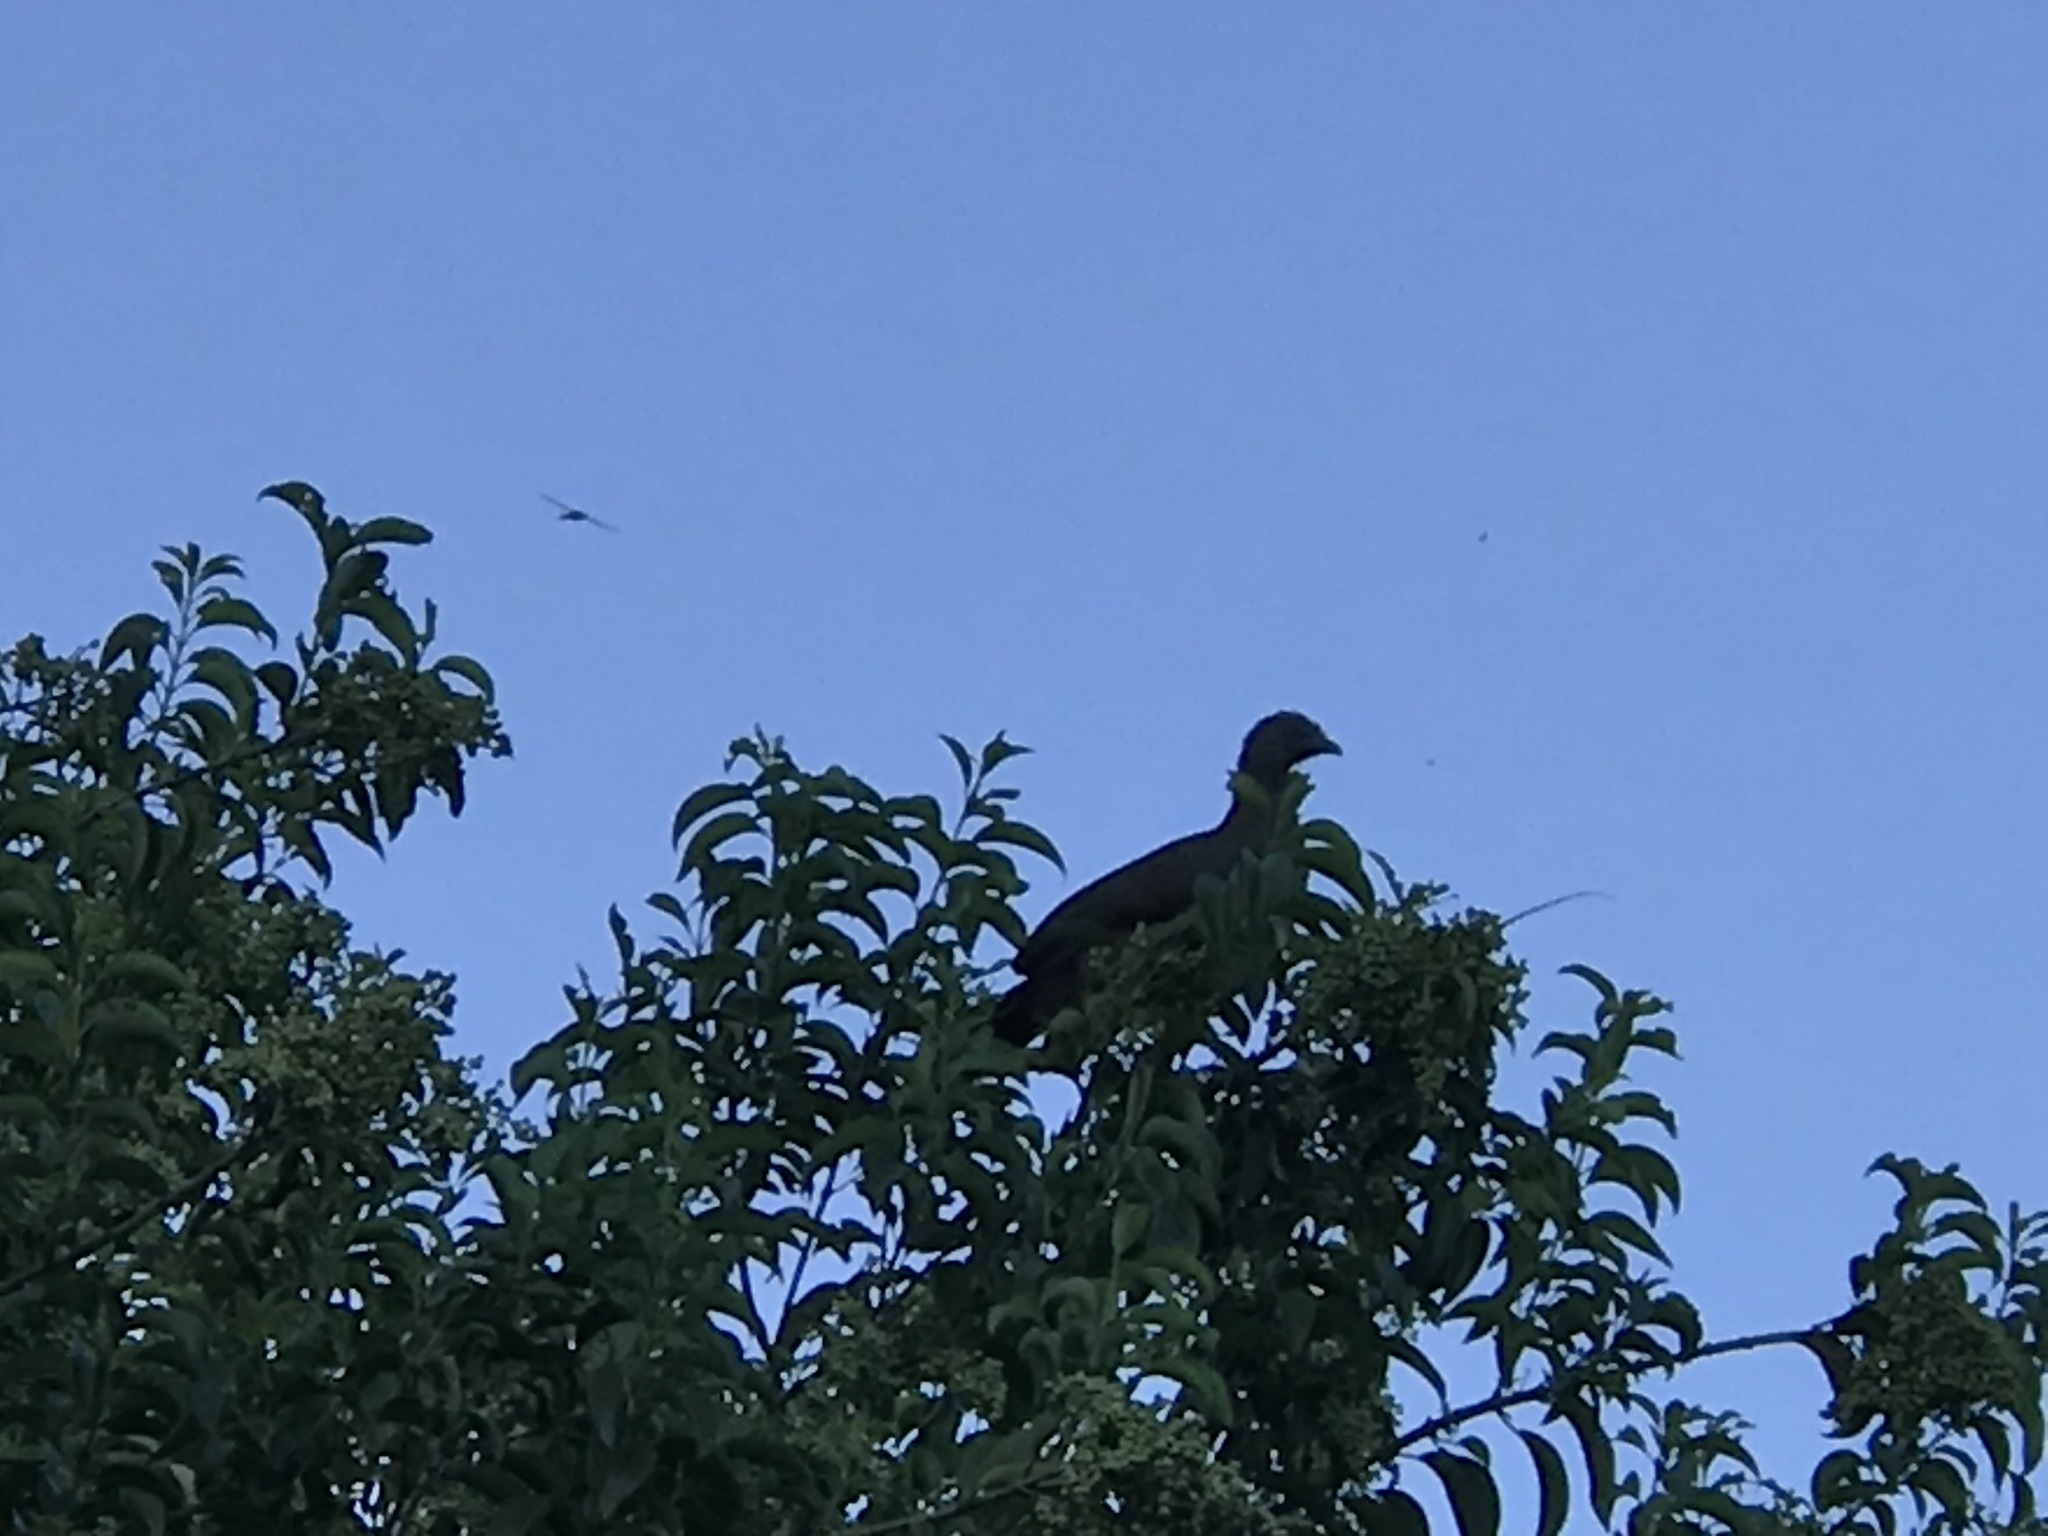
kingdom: Animalia
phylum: Chordata
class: Aves
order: Galliformes
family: Cracidae
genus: Ortalis
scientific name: Ortalis vetula
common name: Plain chachalaca
